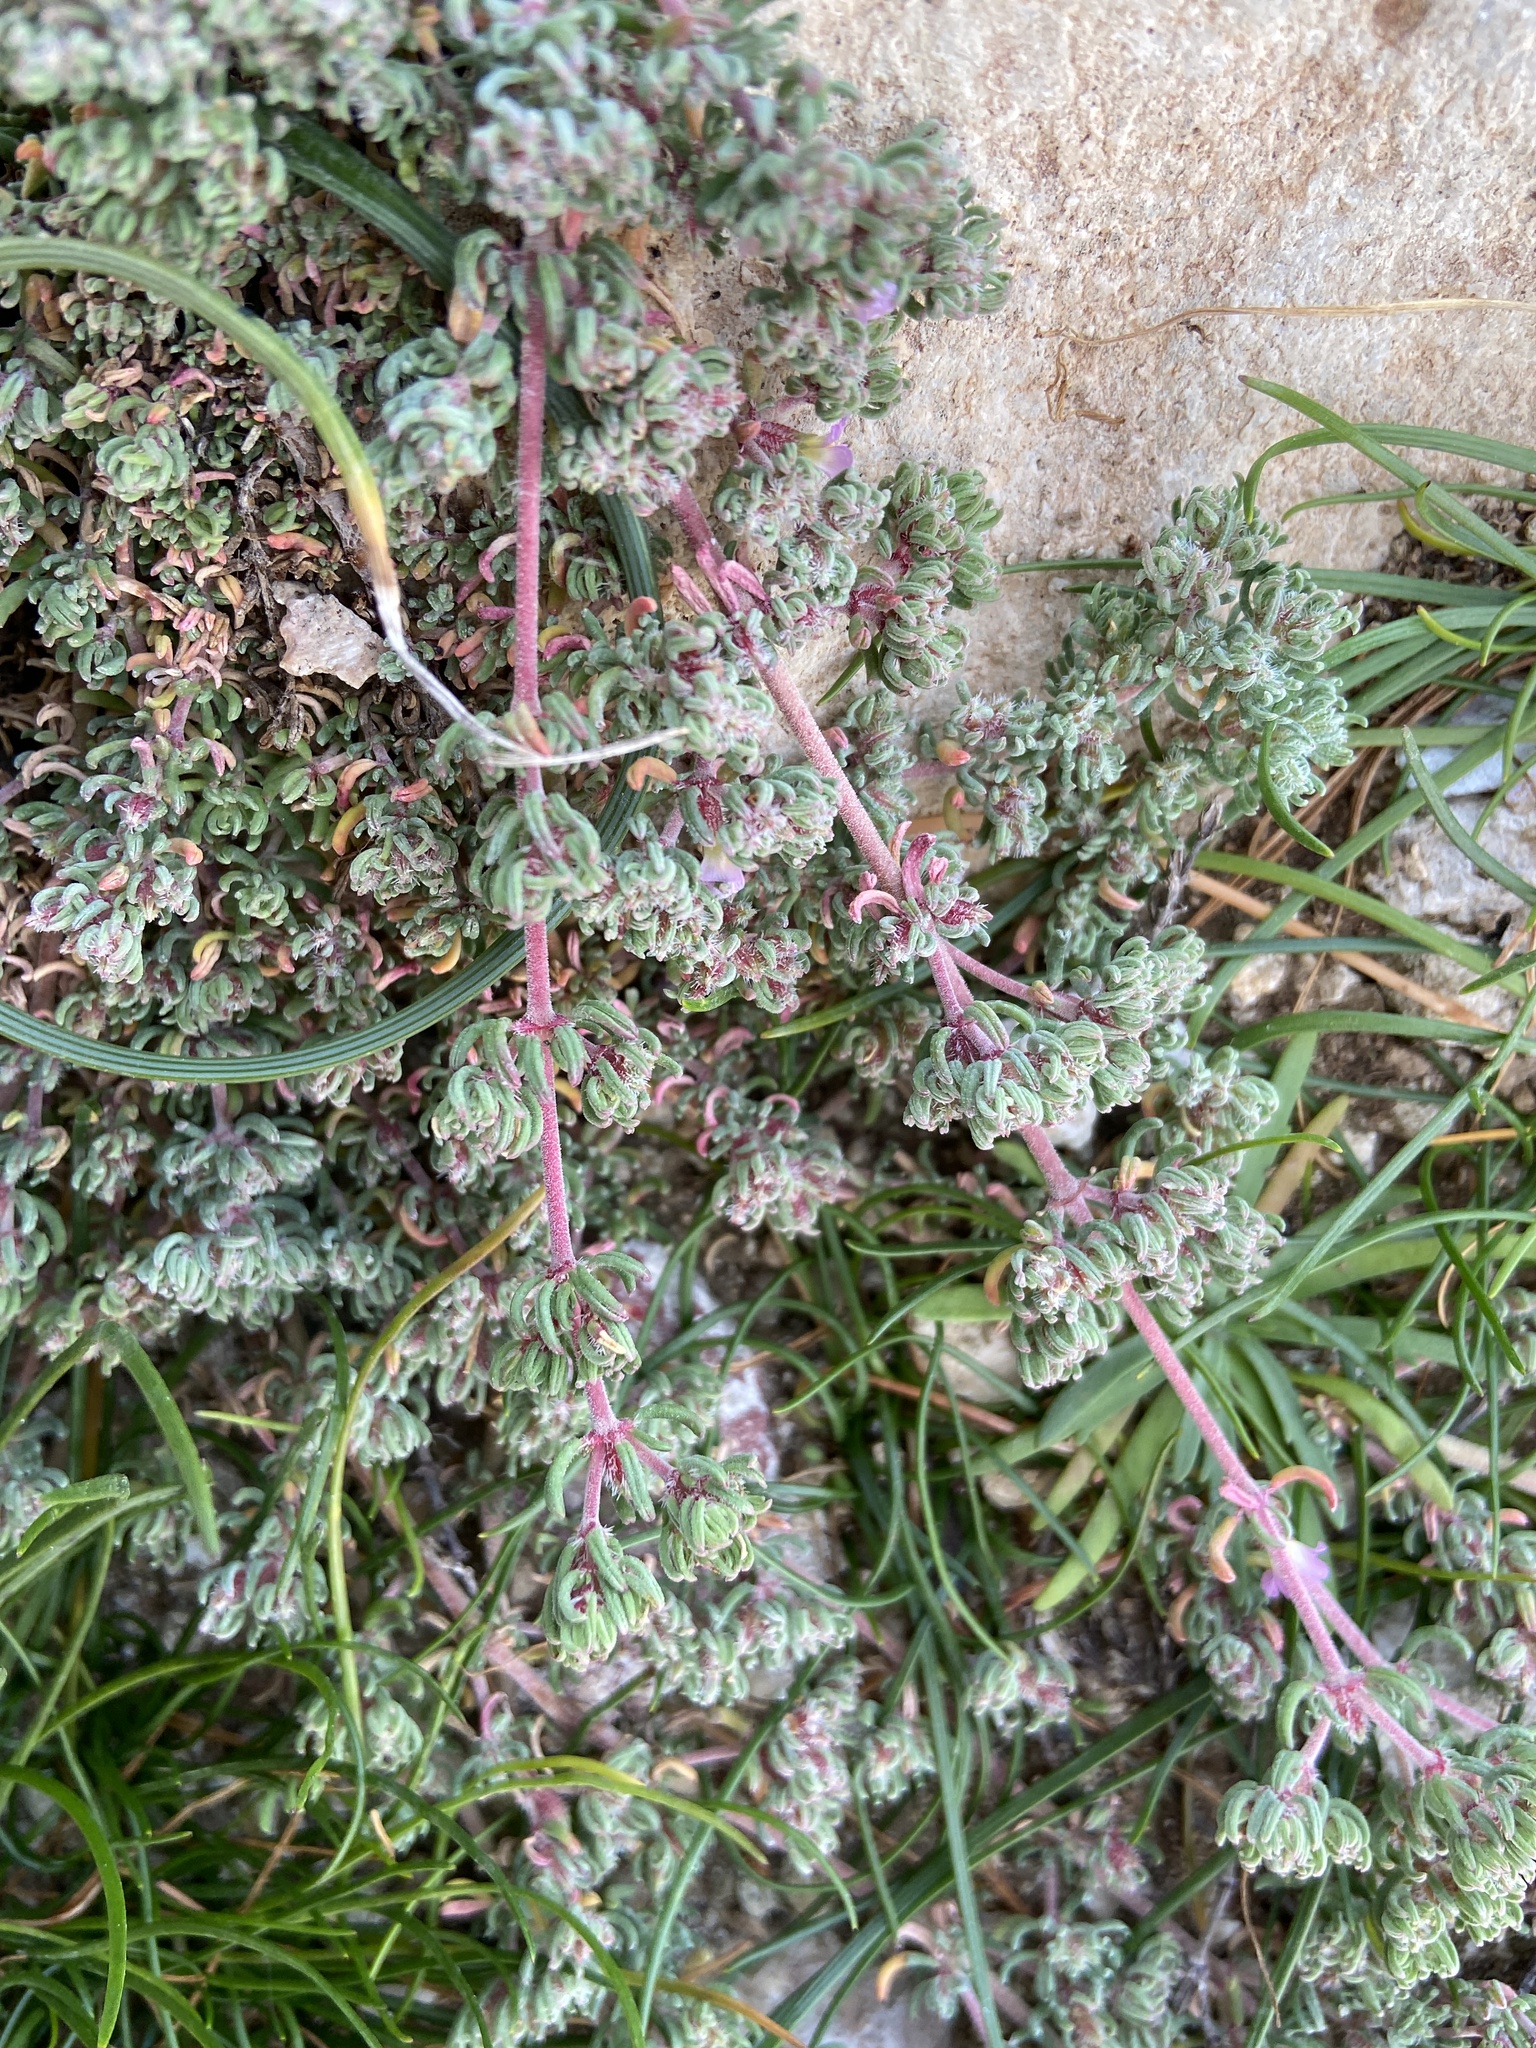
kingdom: Plantae
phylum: Tracheophyta
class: Magnoliopsida
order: Caryophyllales
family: Frankeniaceae
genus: Frankenia
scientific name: Frankenia hirsuta
